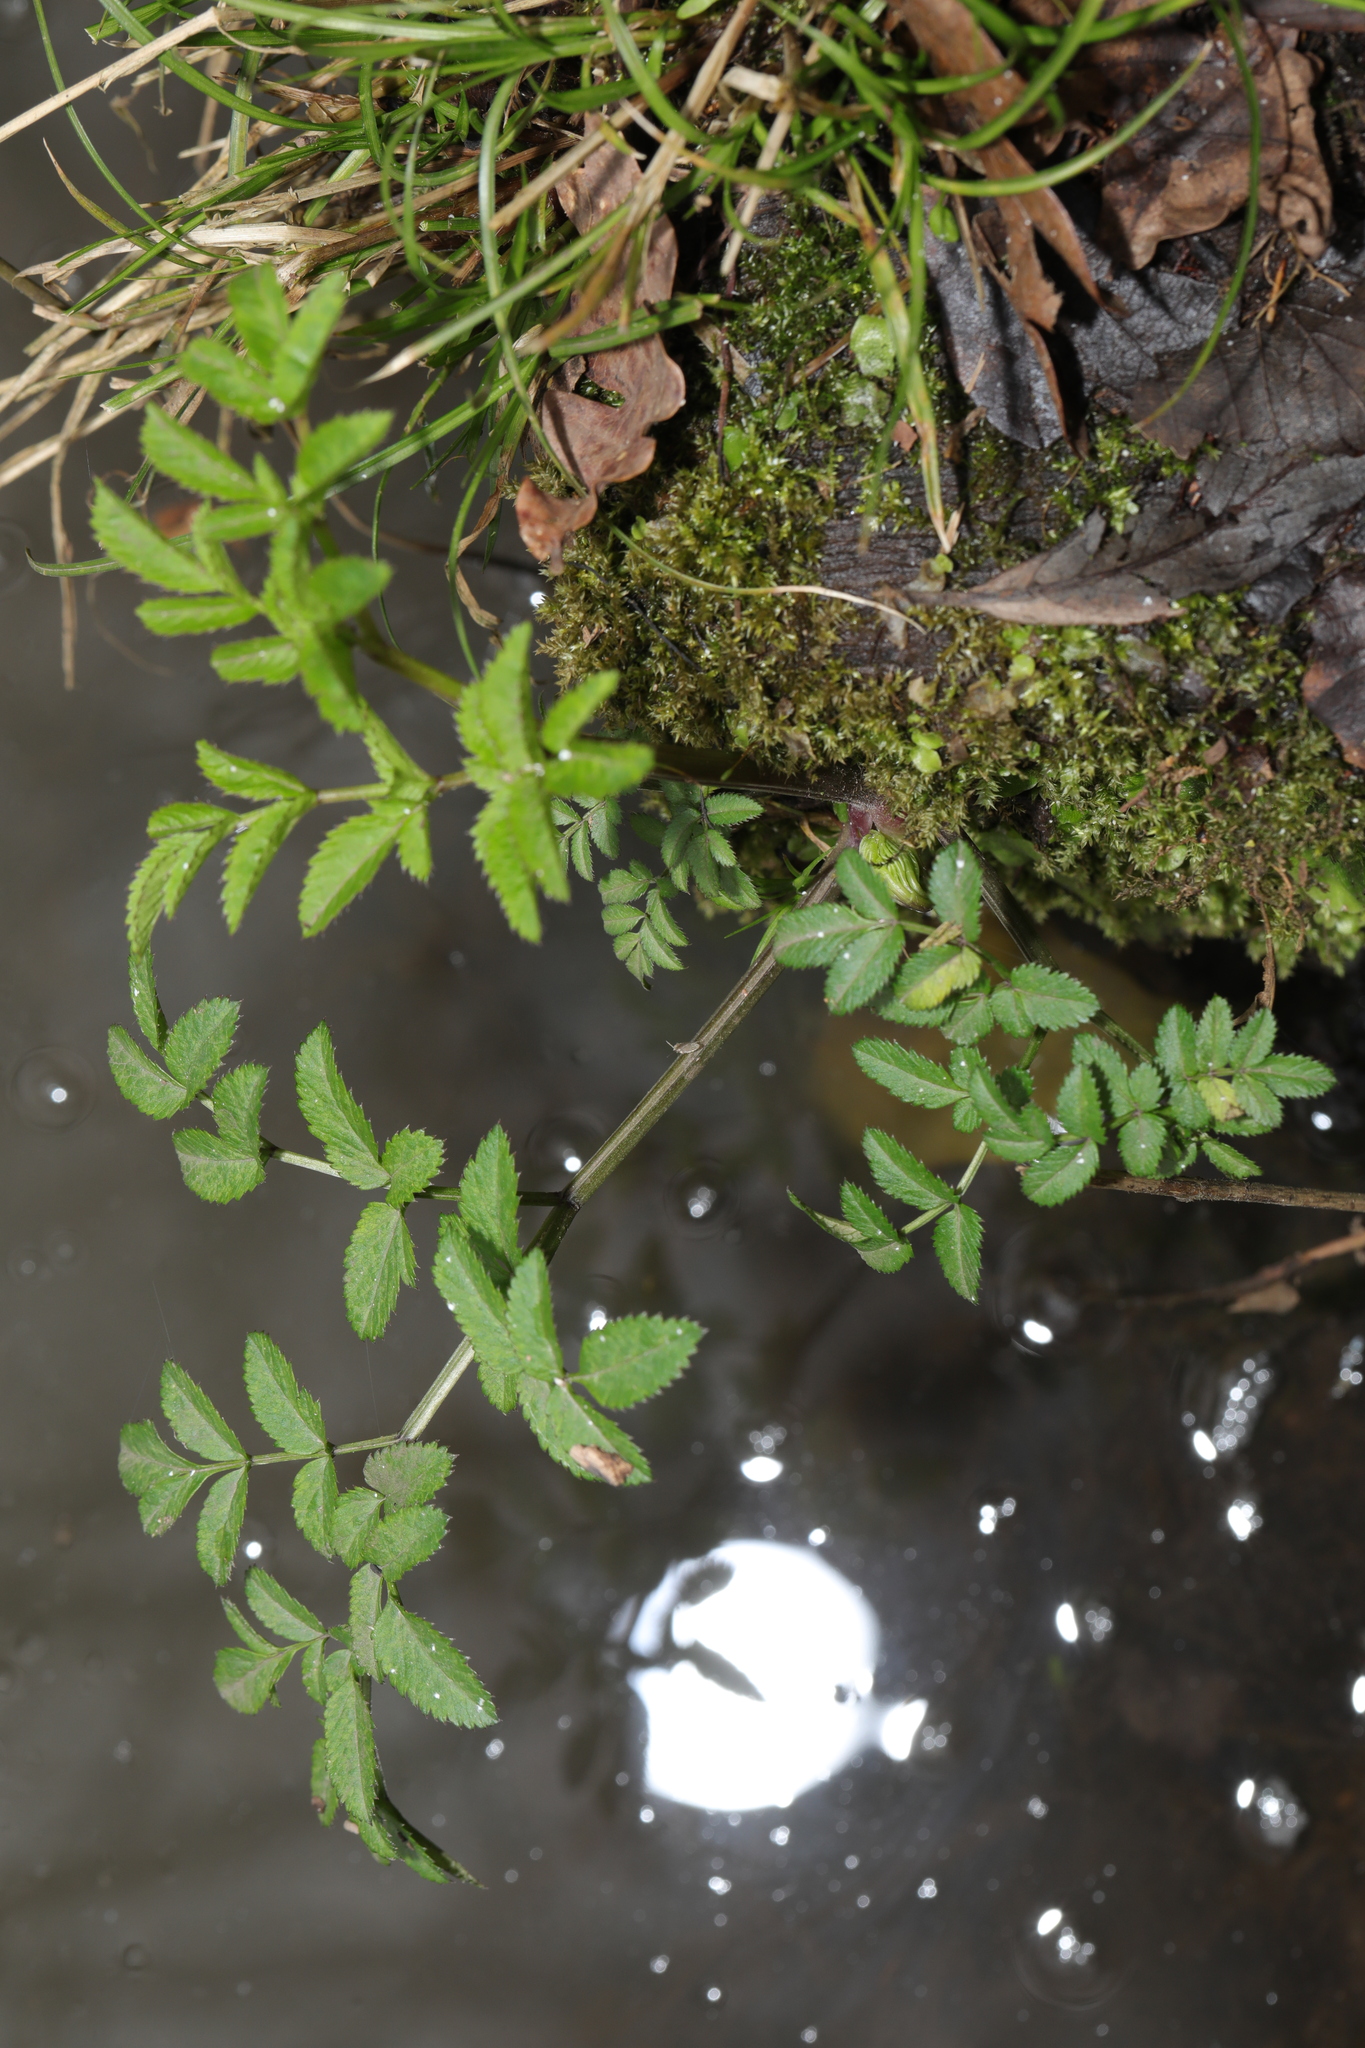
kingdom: Plantae
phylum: Tracheophyta
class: Magnoliopsida
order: Apiales
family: Apiaceae
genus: Angelica
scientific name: Angelica sylvestris
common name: Wild angelica
